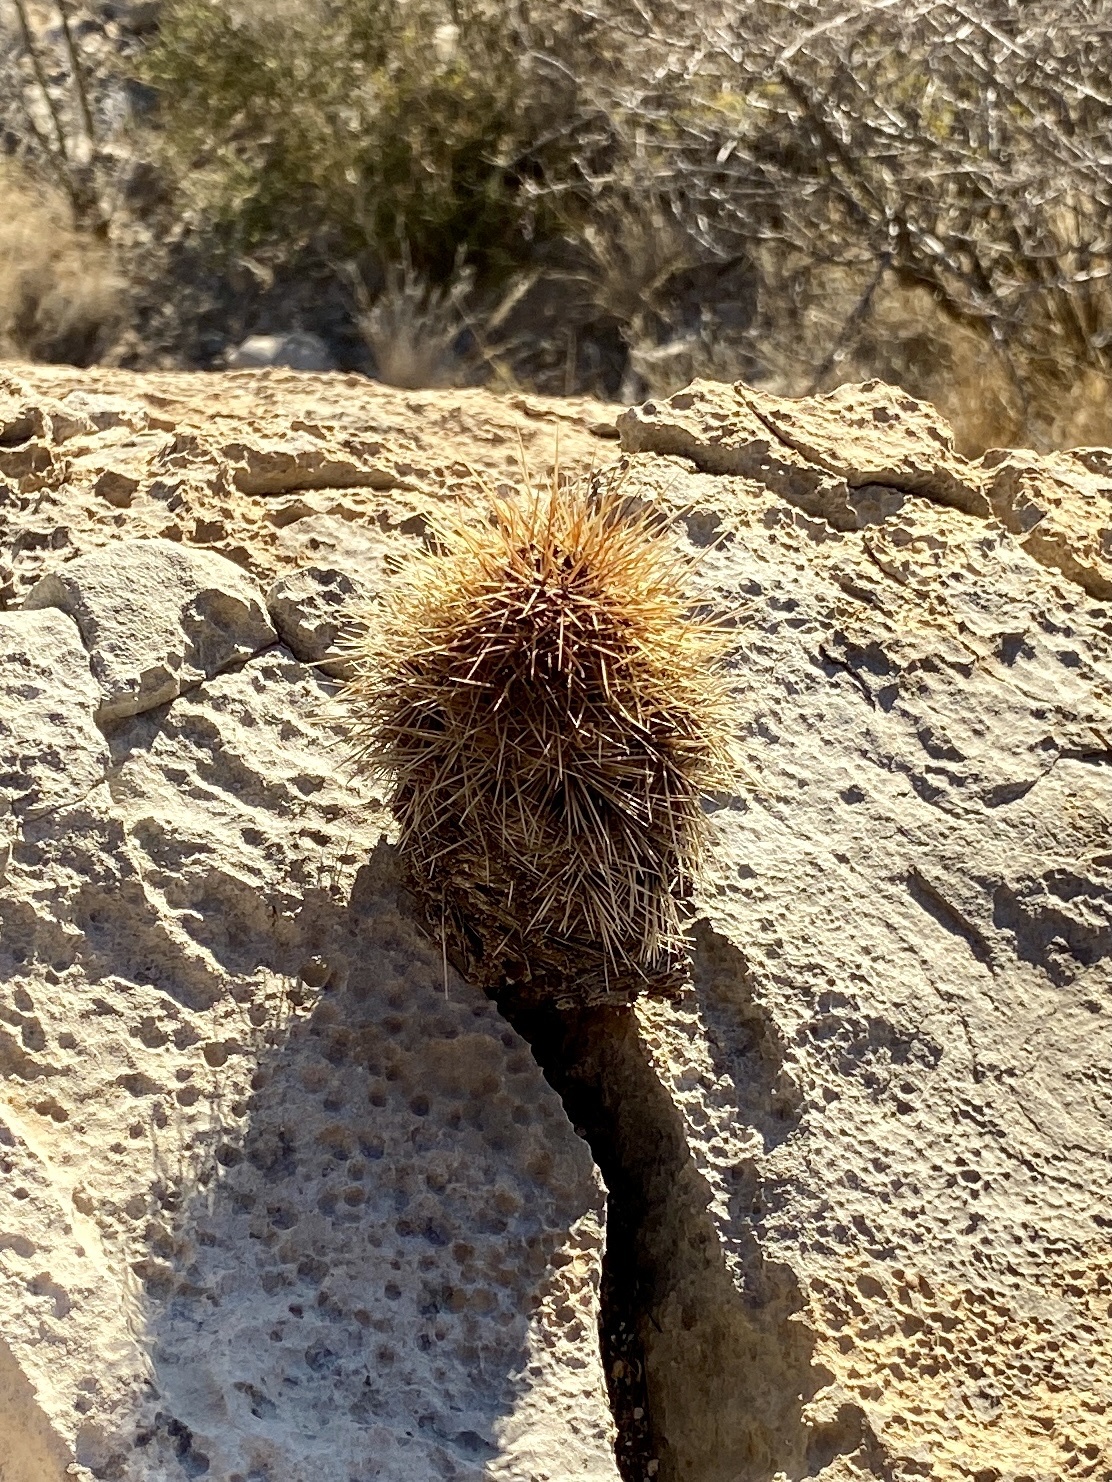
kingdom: Plantae
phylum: Tracheophyta
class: Magnoliopsida
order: Caryophyllales
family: Cactaceae
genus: Echinocereus
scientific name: Echinocereus coccineus
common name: Scarlet hedgehog cactus
